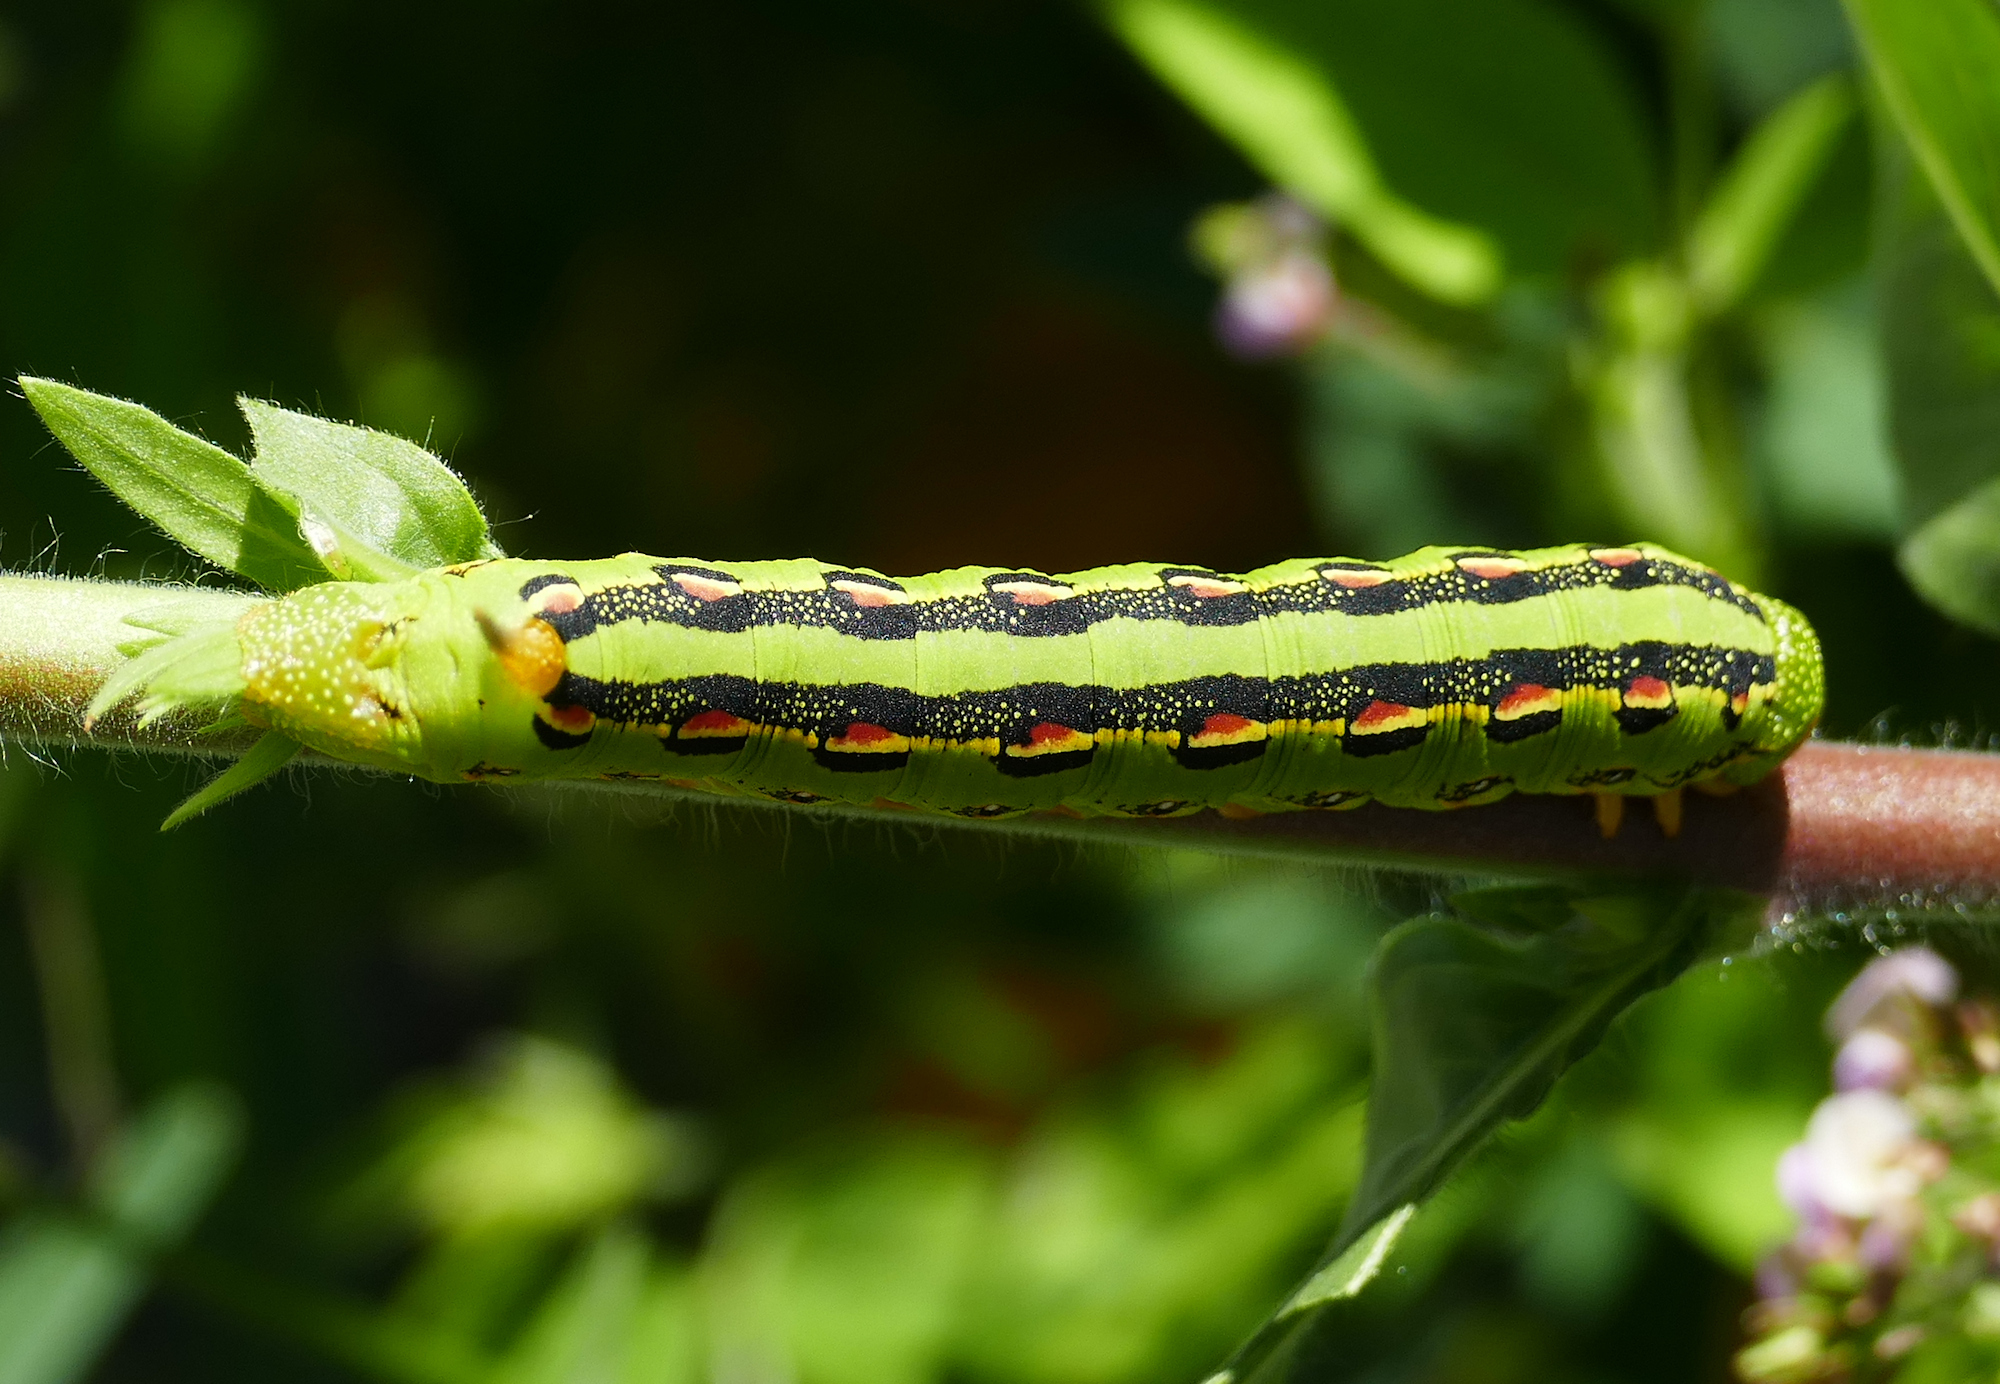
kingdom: Animalia
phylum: Arthropoda
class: Insecta
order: Lepidoptera
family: Sphingidae
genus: Hyles
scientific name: Hyles lineata
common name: White-lined sphinx
